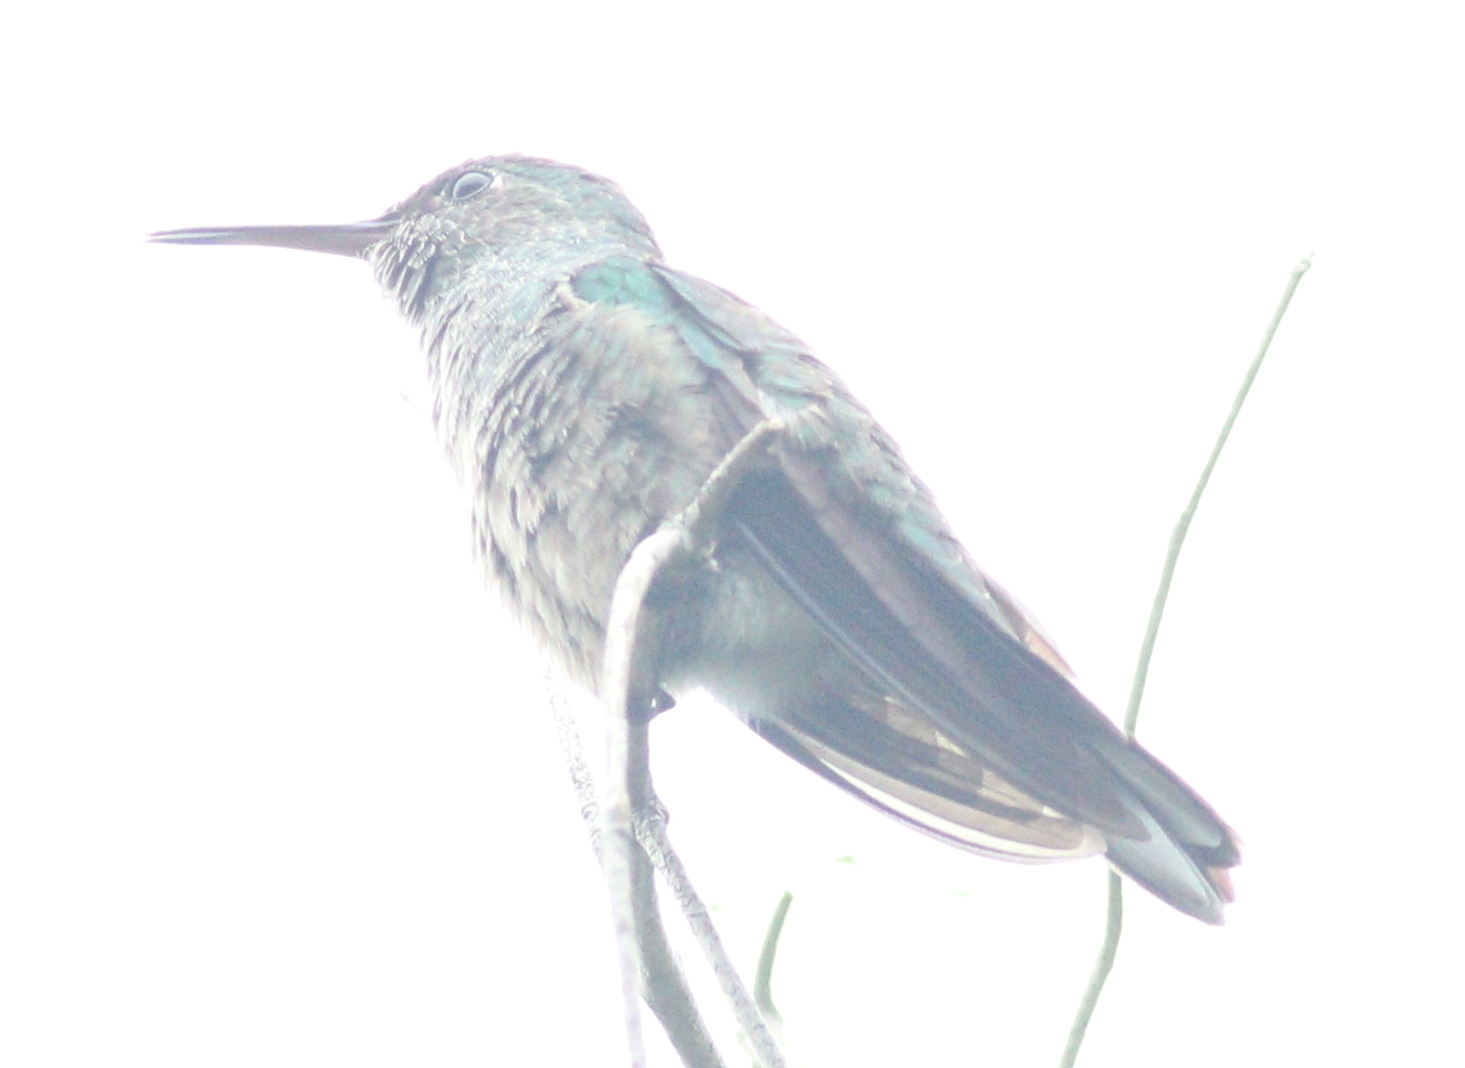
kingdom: Animalia
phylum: Chordata
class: Aves
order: Apodiformes
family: Trochilidae
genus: Phaeochroa
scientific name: Phaeochroa cuvierii
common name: Scaly-breasted hummingbird
